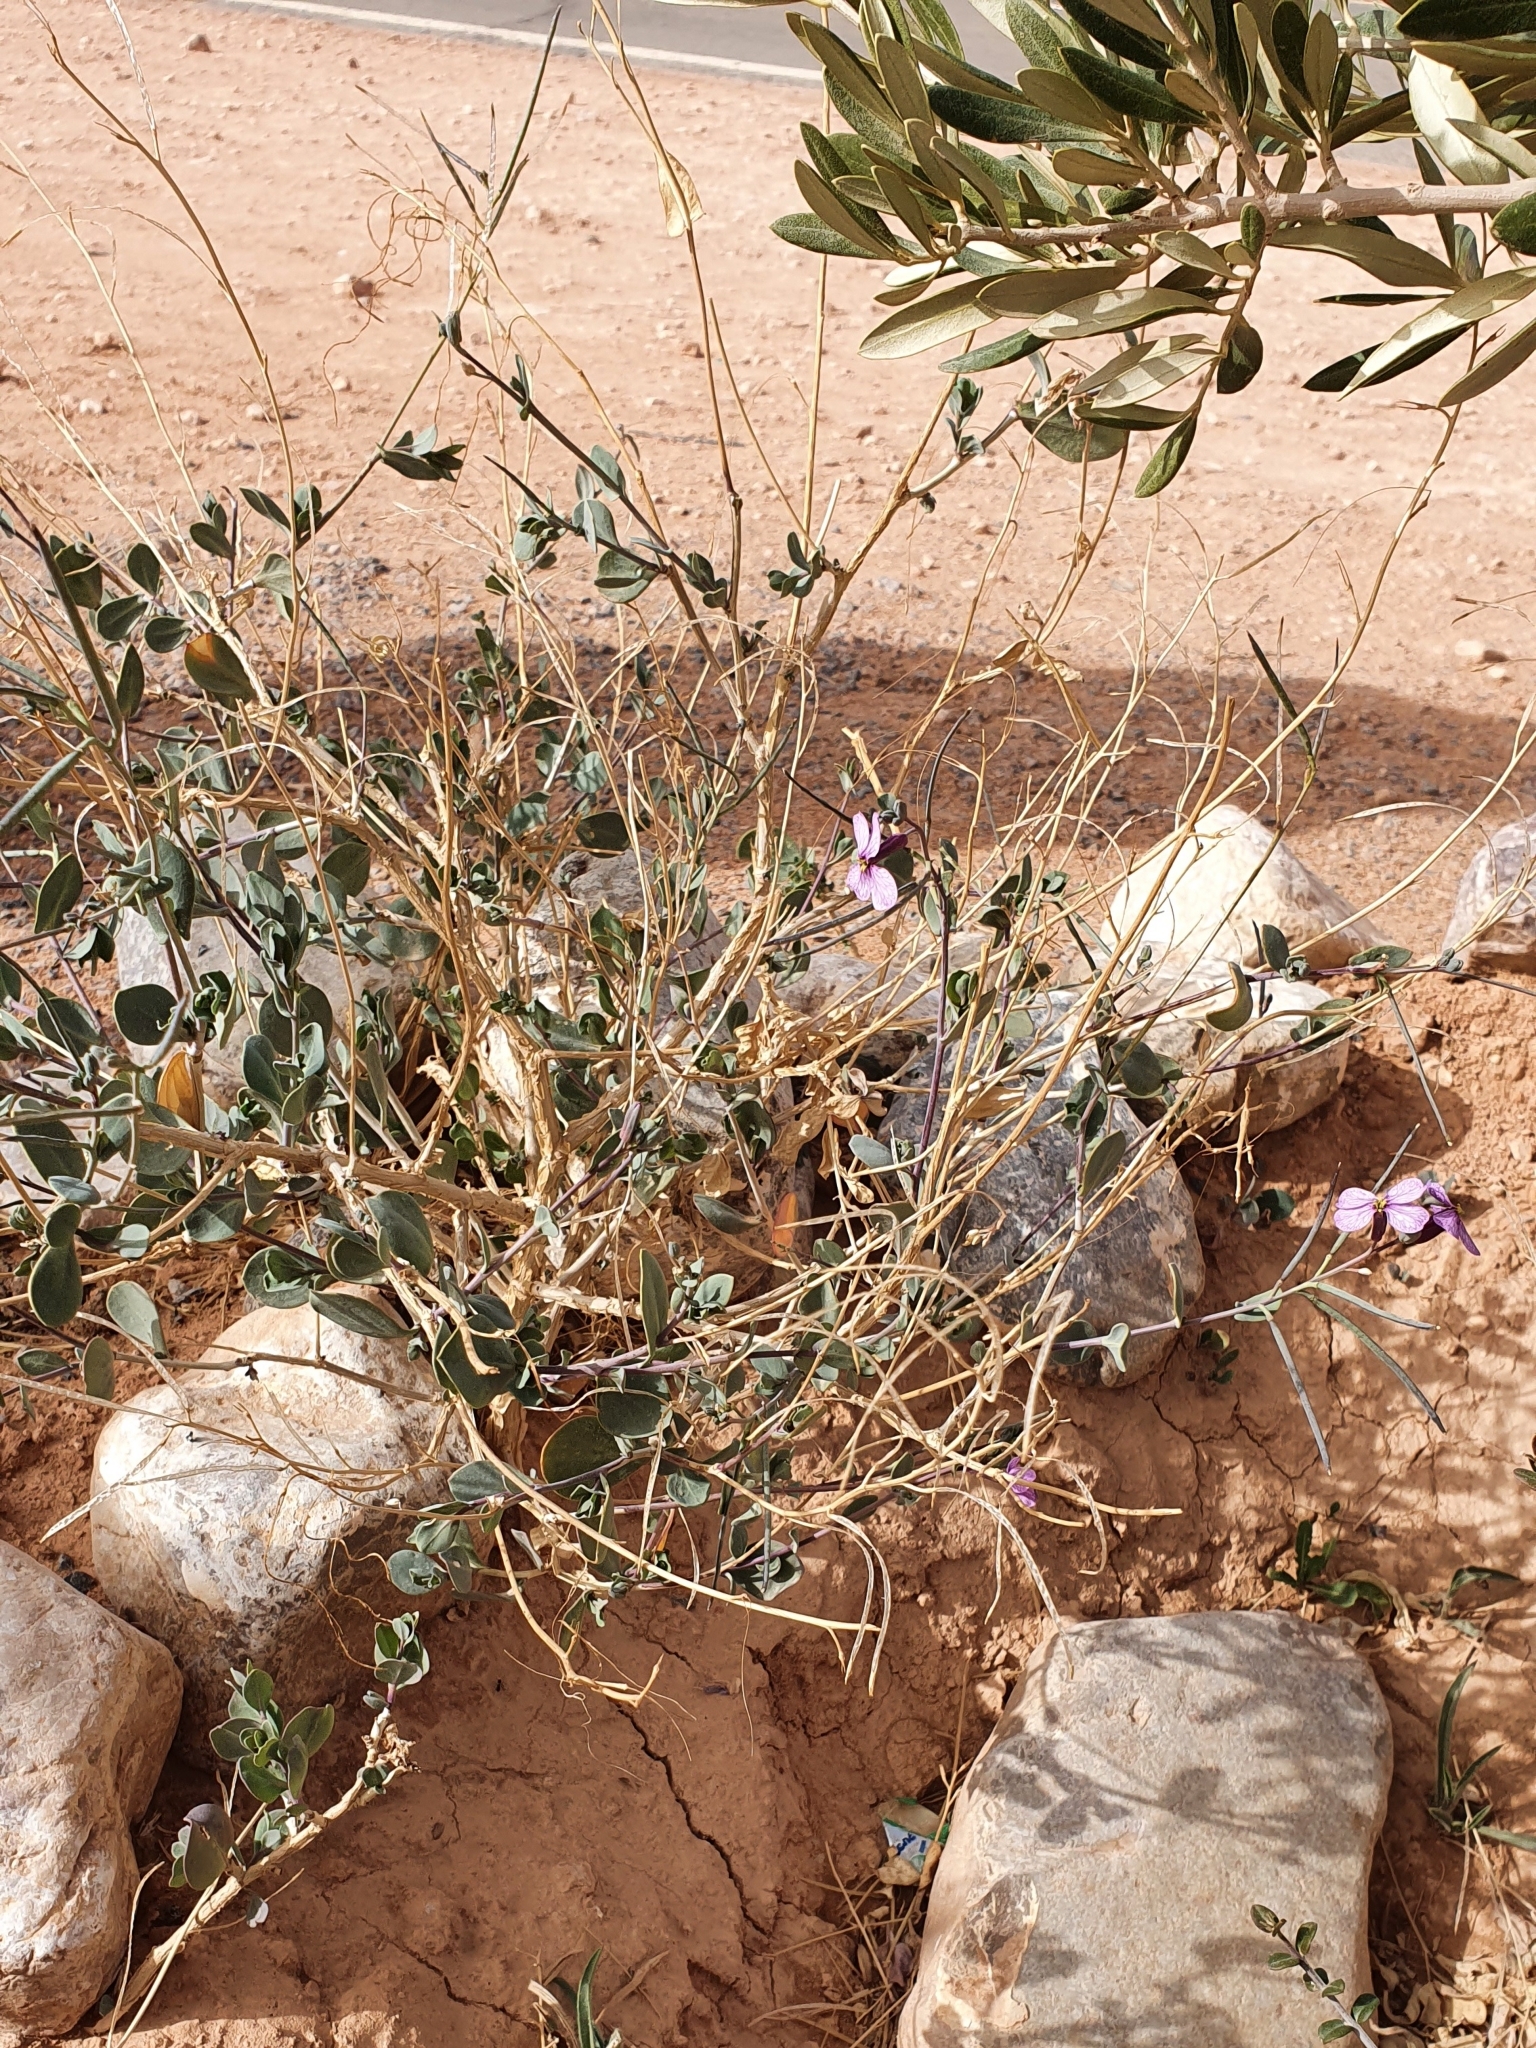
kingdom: Plantae
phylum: Tracheophyta
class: Magnoliopsida
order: Brassicales
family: Brassicaceae
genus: Moricandia
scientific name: Moricandia suffruticosa
